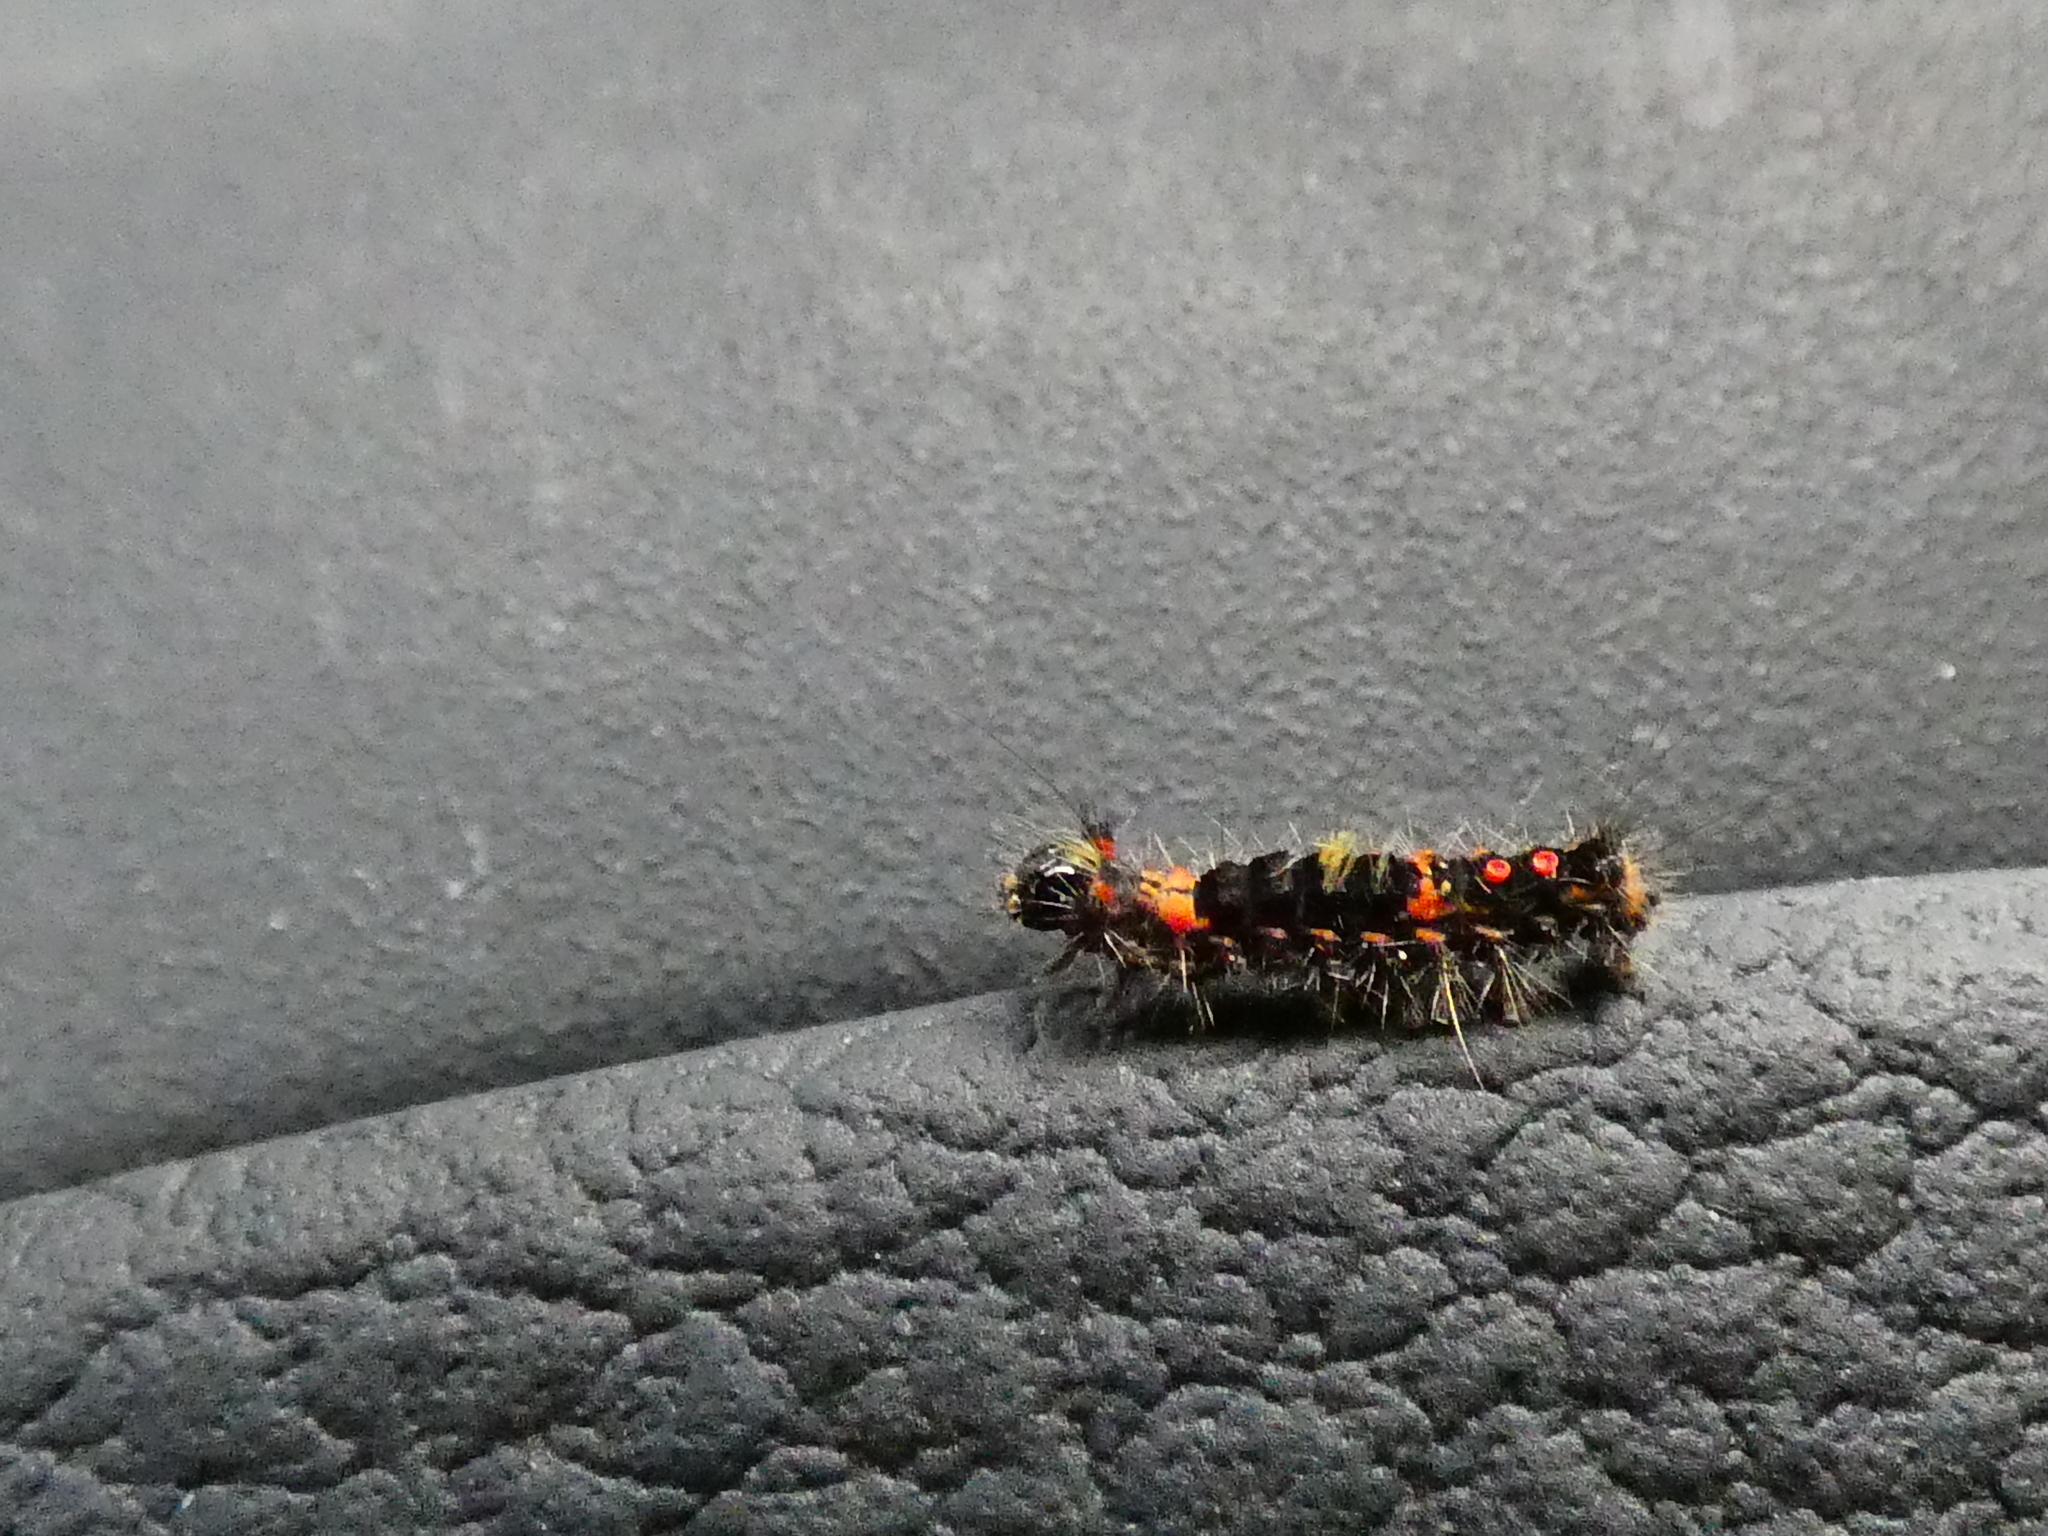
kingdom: Animalia
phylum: Arthropoda
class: Insecta
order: Lepidoptera
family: Erebidae
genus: Sphrageidus
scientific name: Sphrageidus similis
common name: Yellow-tail
